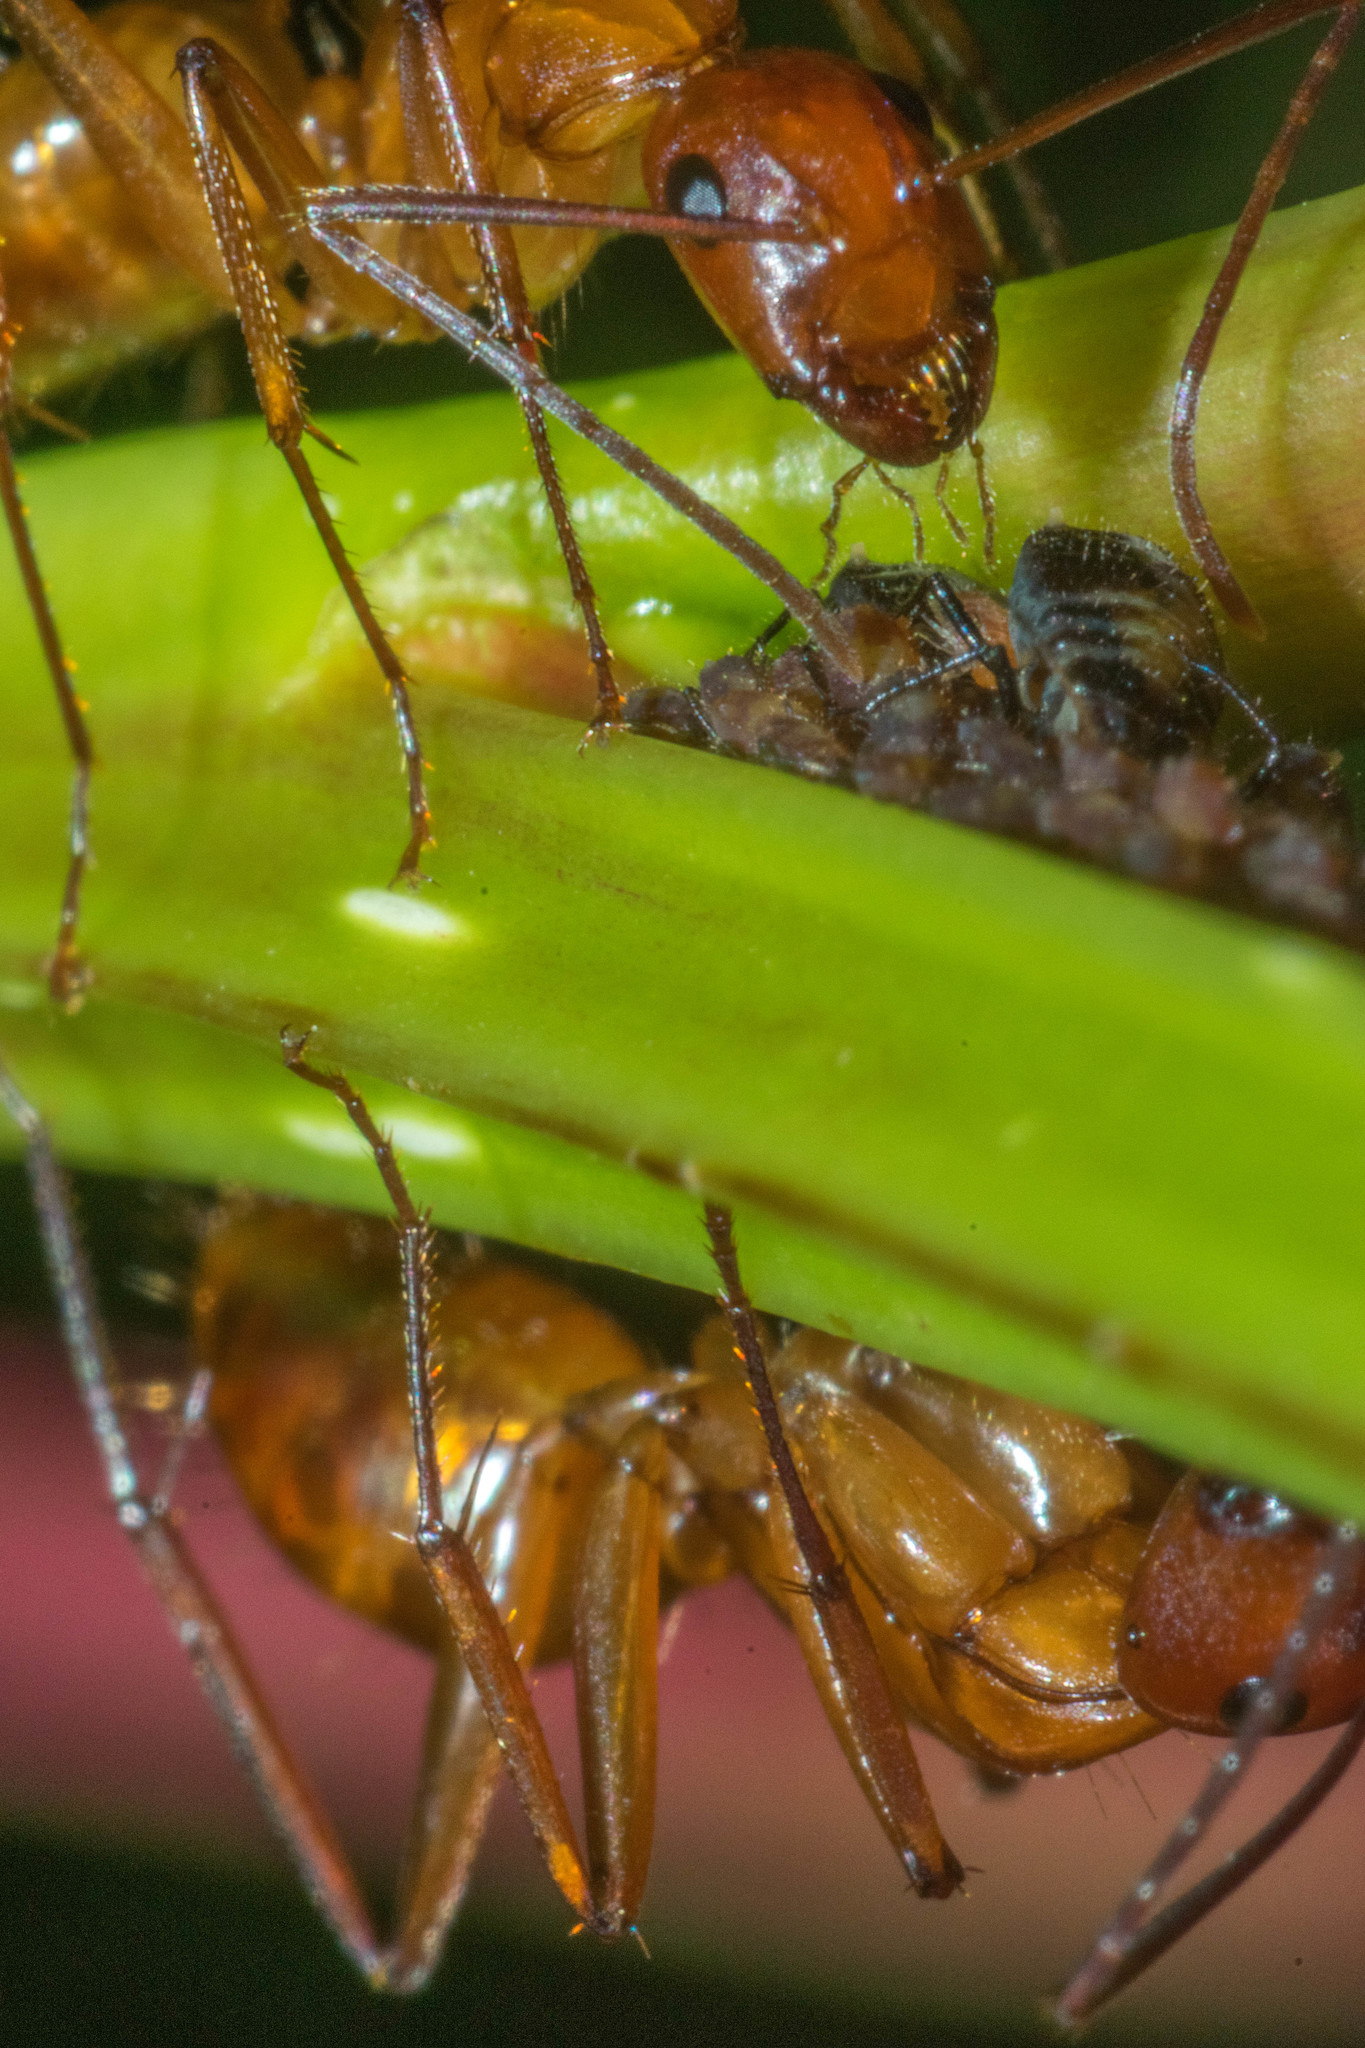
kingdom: Animalia
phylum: Arthropoda
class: Insecta
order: Hymenoptera
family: Formicidae
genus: Camponotus
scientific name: Camponotus castaneus
